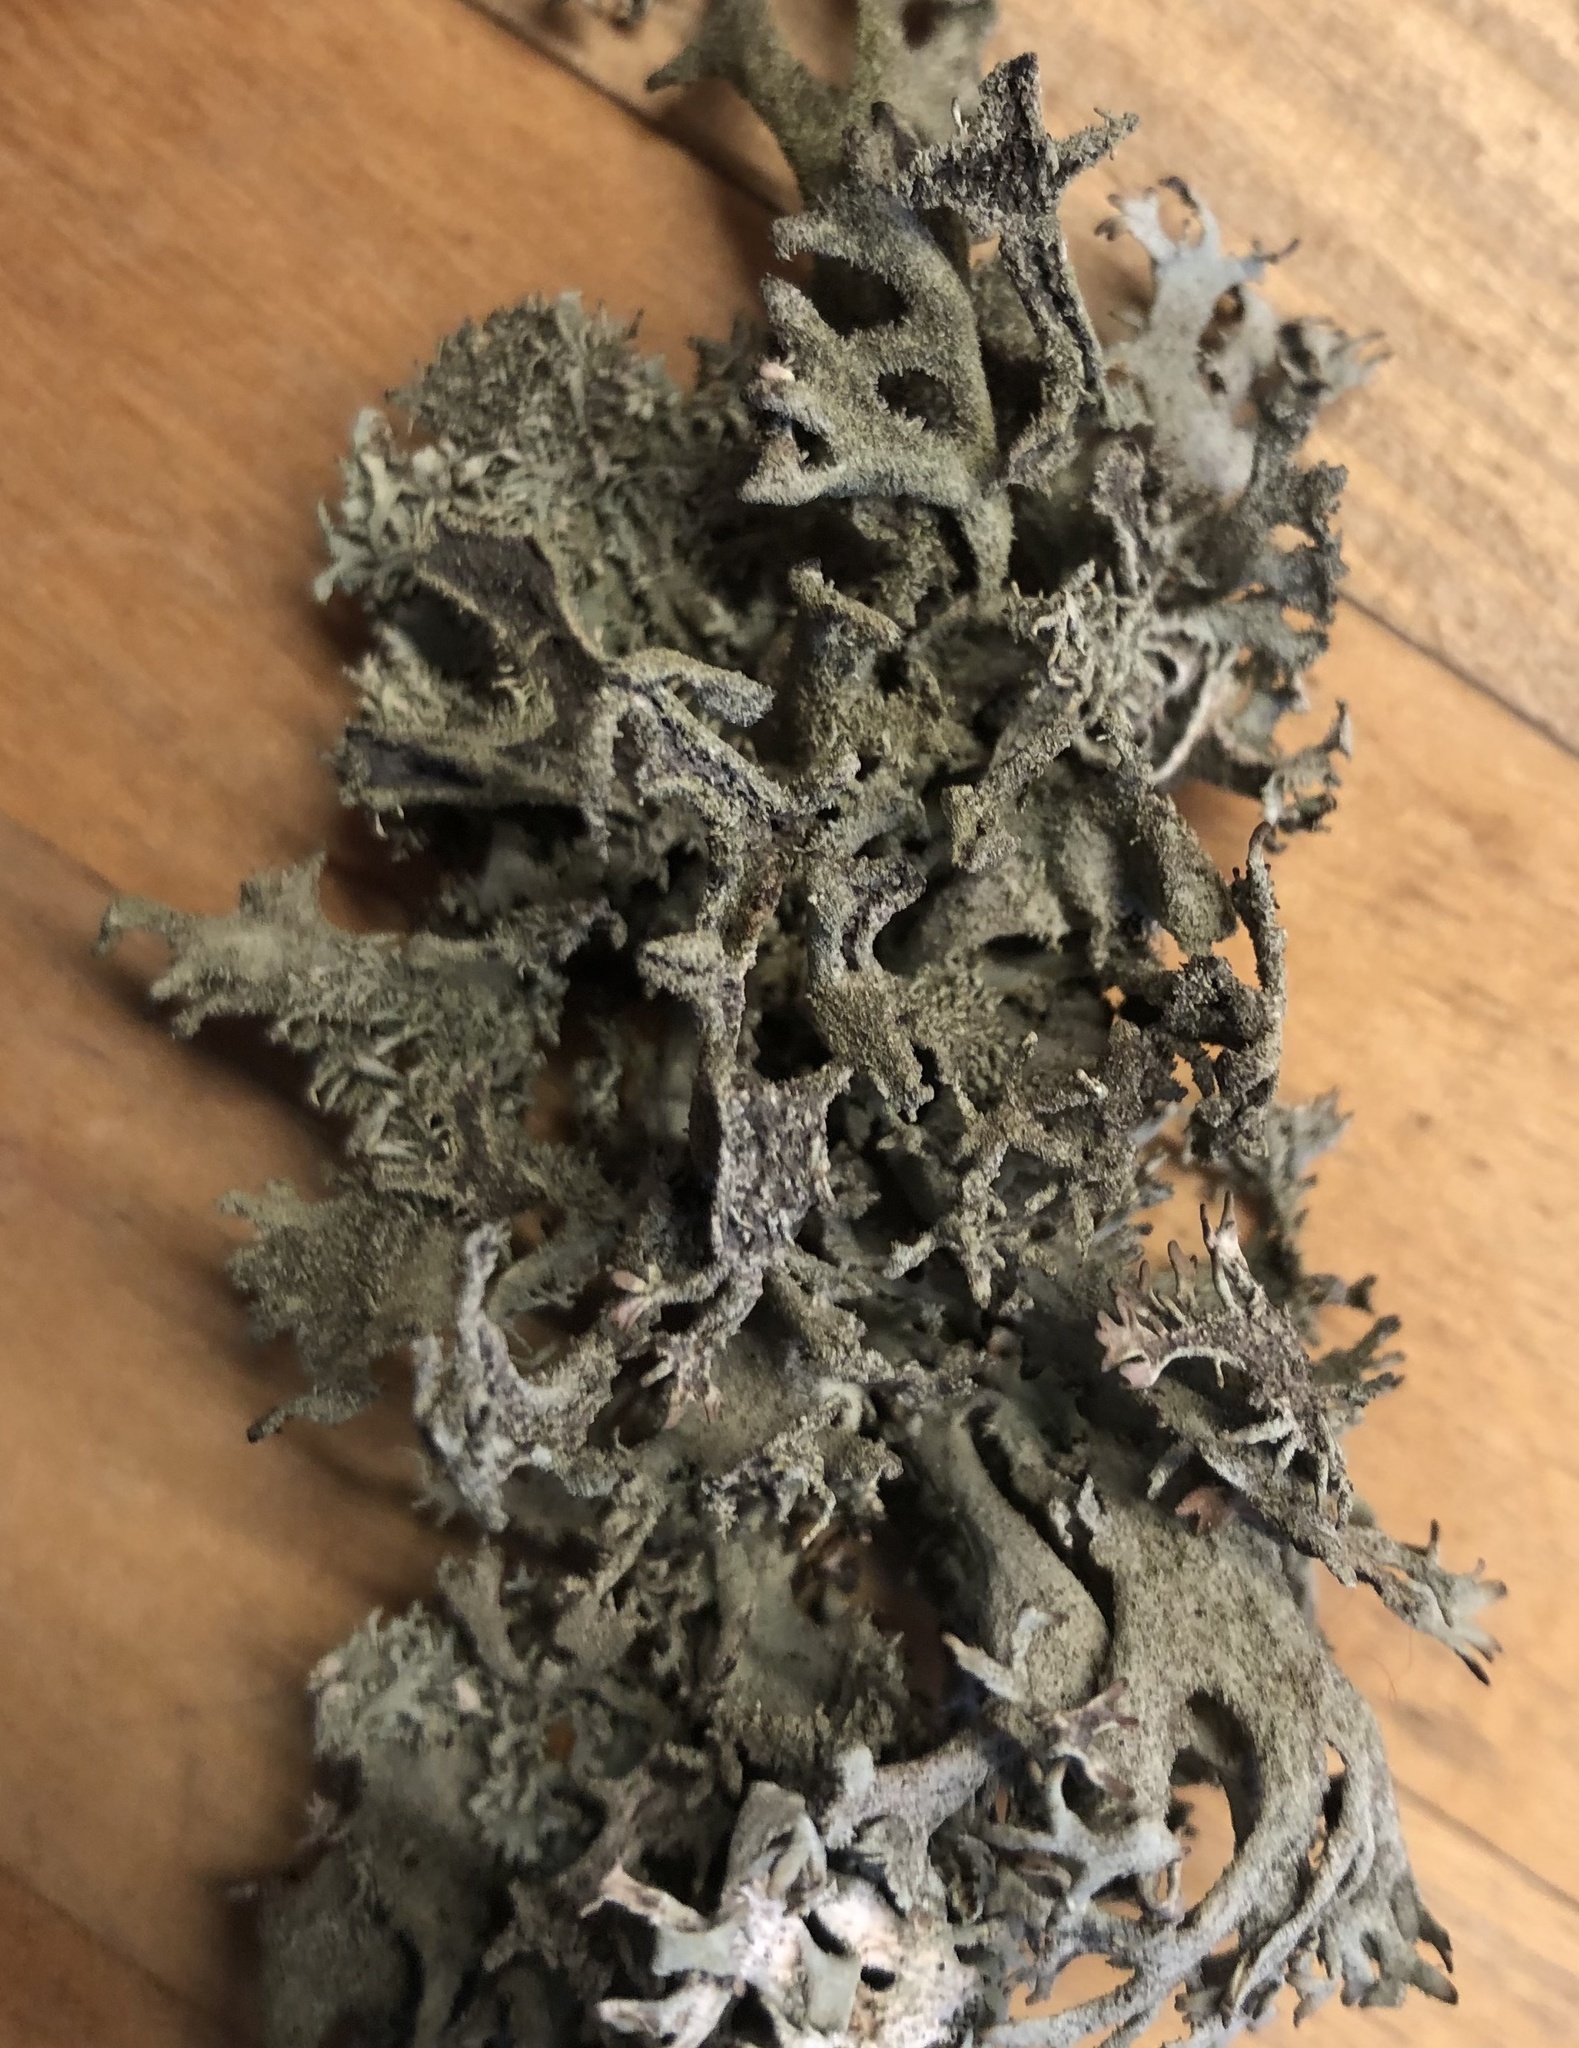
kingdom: Fungi
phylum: Ascomycota
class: Lecanoromycetes
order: Lecanorales
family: Parmeliaceae
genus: Pseudevernia
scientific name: Pseudevernia furfuracea
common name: Tree moss
